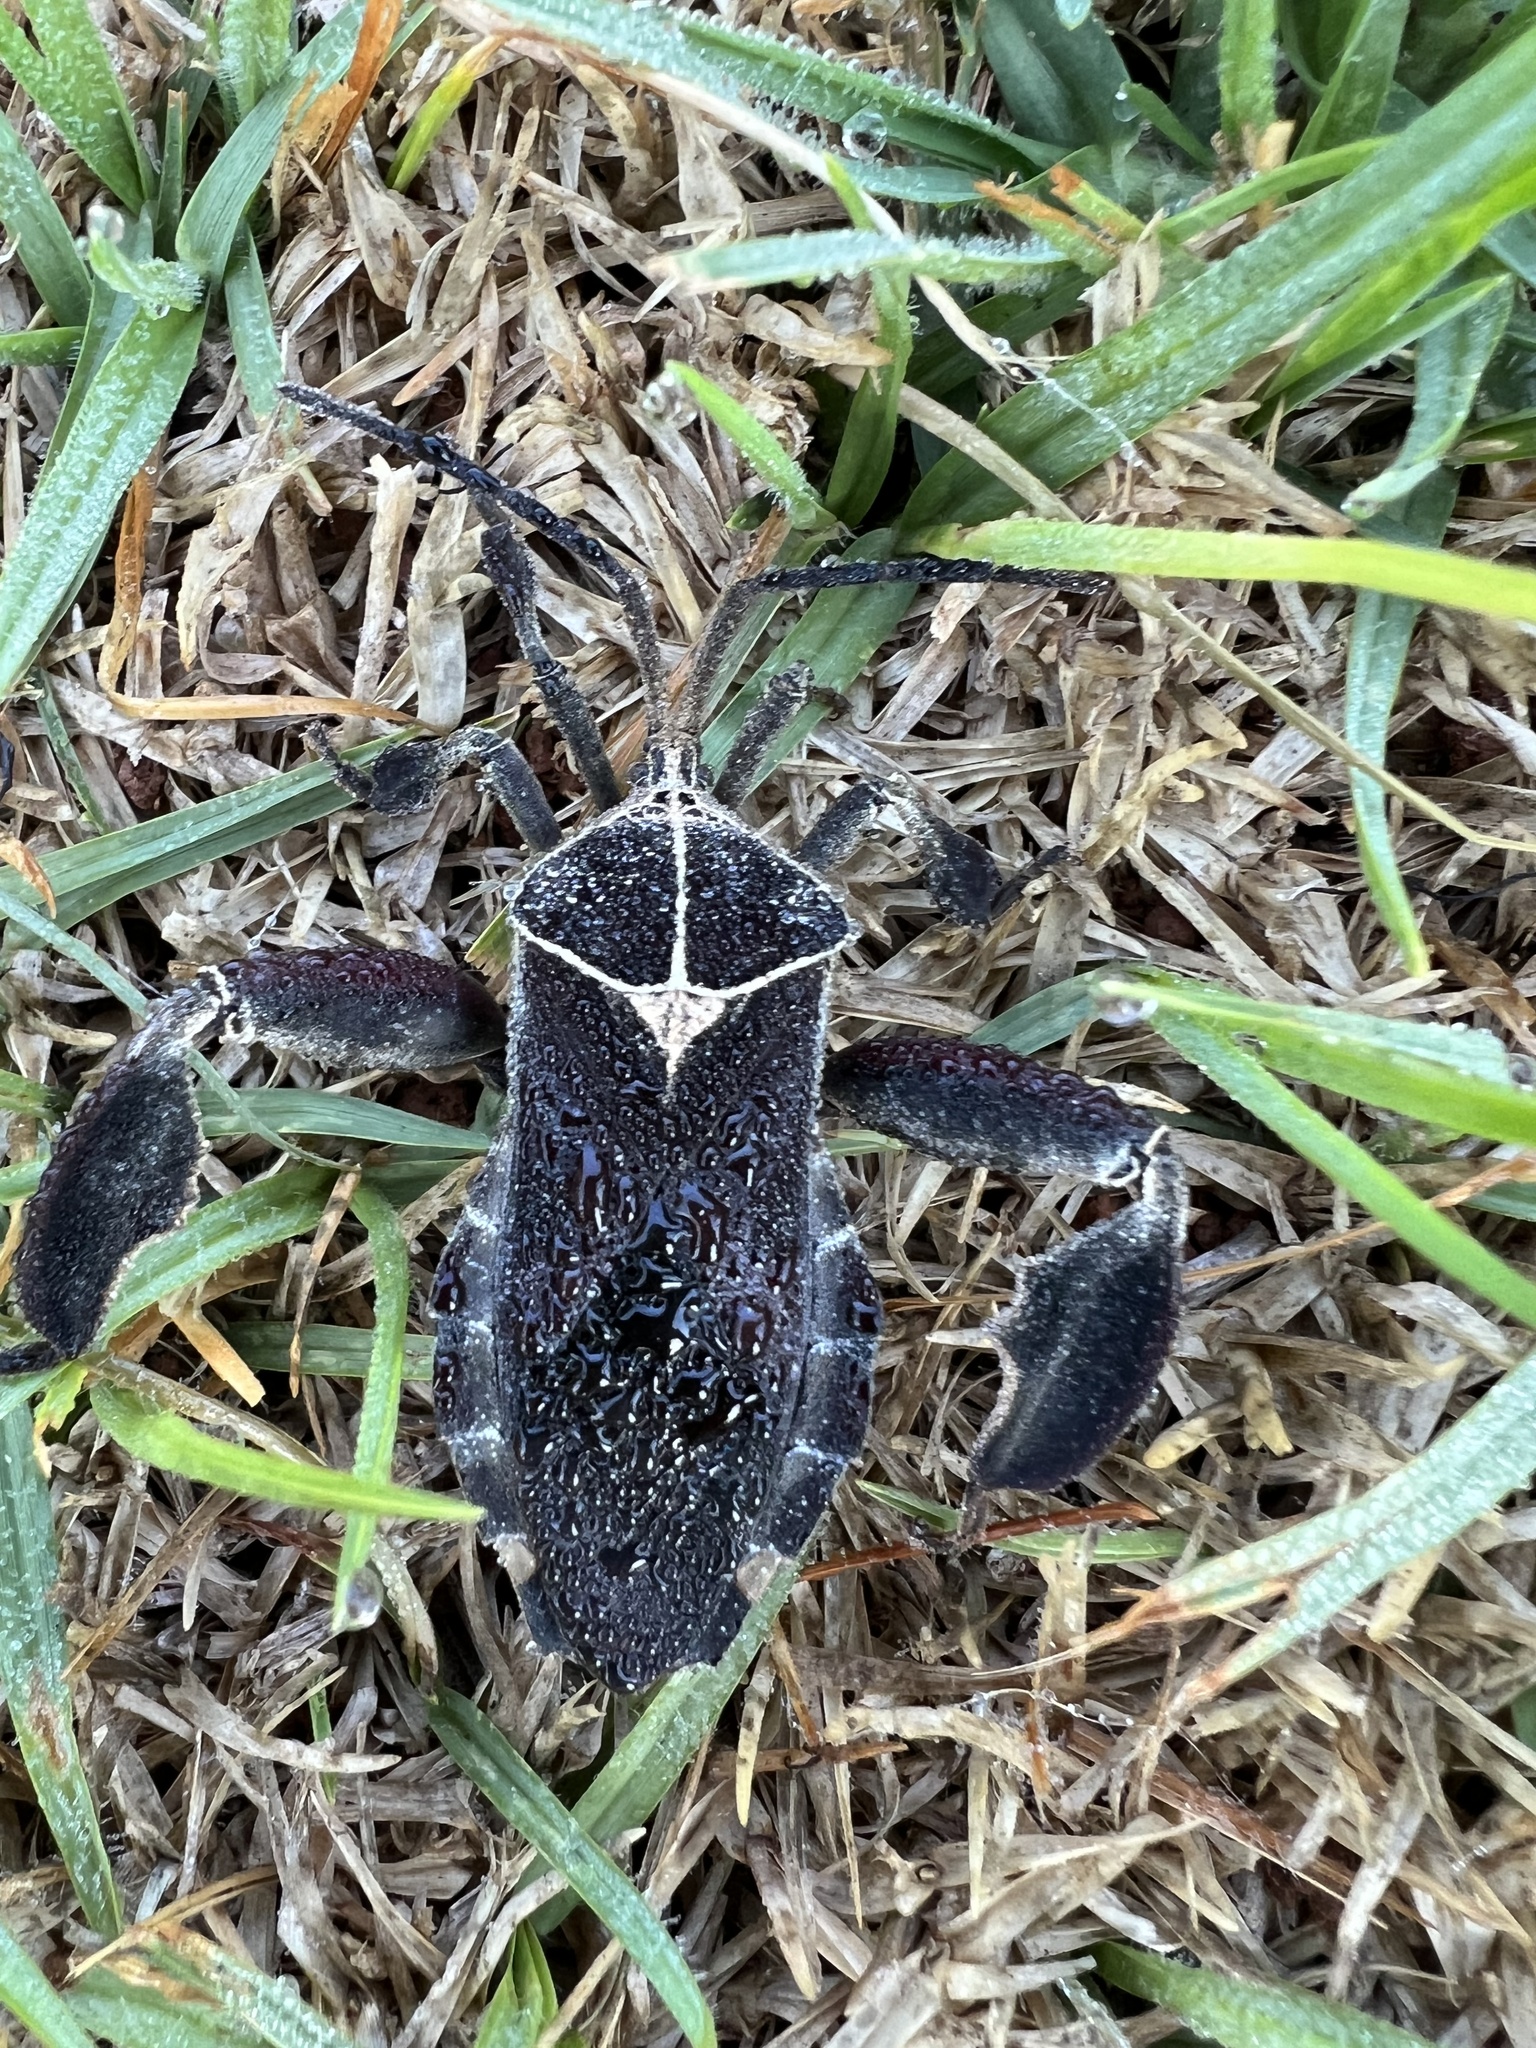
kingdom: Animalia
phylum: Arthropoda
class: Insecta
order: Hemiptera
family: Coreidae
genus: Petascelis
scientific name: Petascelis remipes
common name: Giant twig wilter
